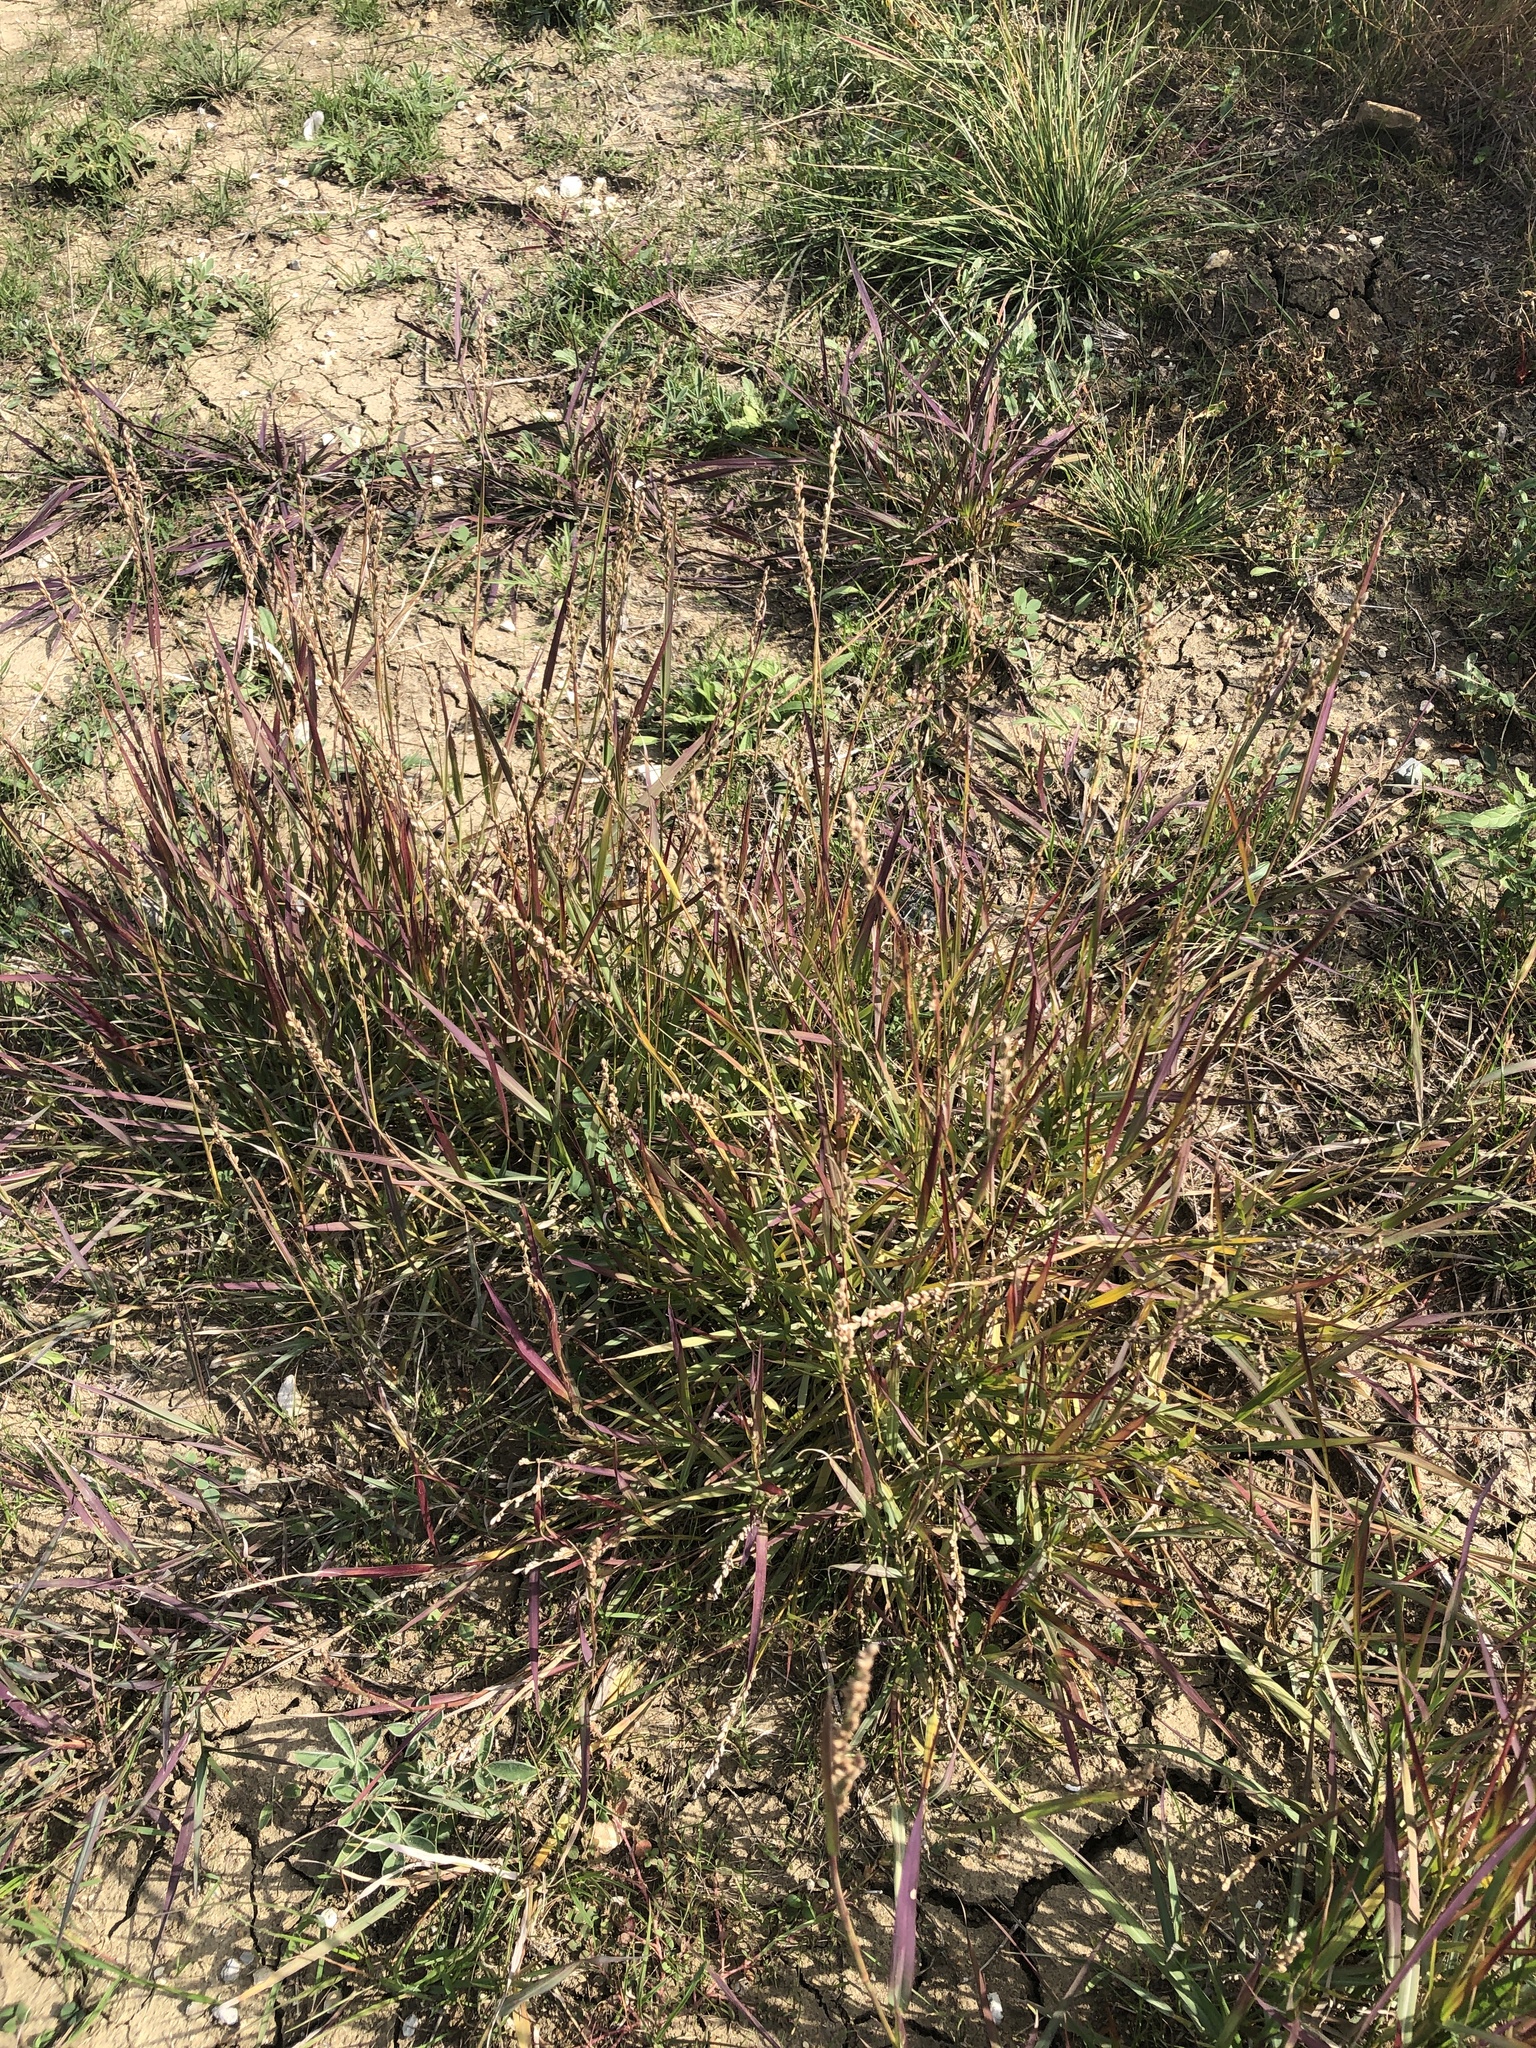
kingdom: Plantae
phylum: Tracheophyta
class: Liliopsida
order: Poales
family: Poaceae
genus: Hopia
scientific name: Hopia obtusa
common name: Vine-mesquite
